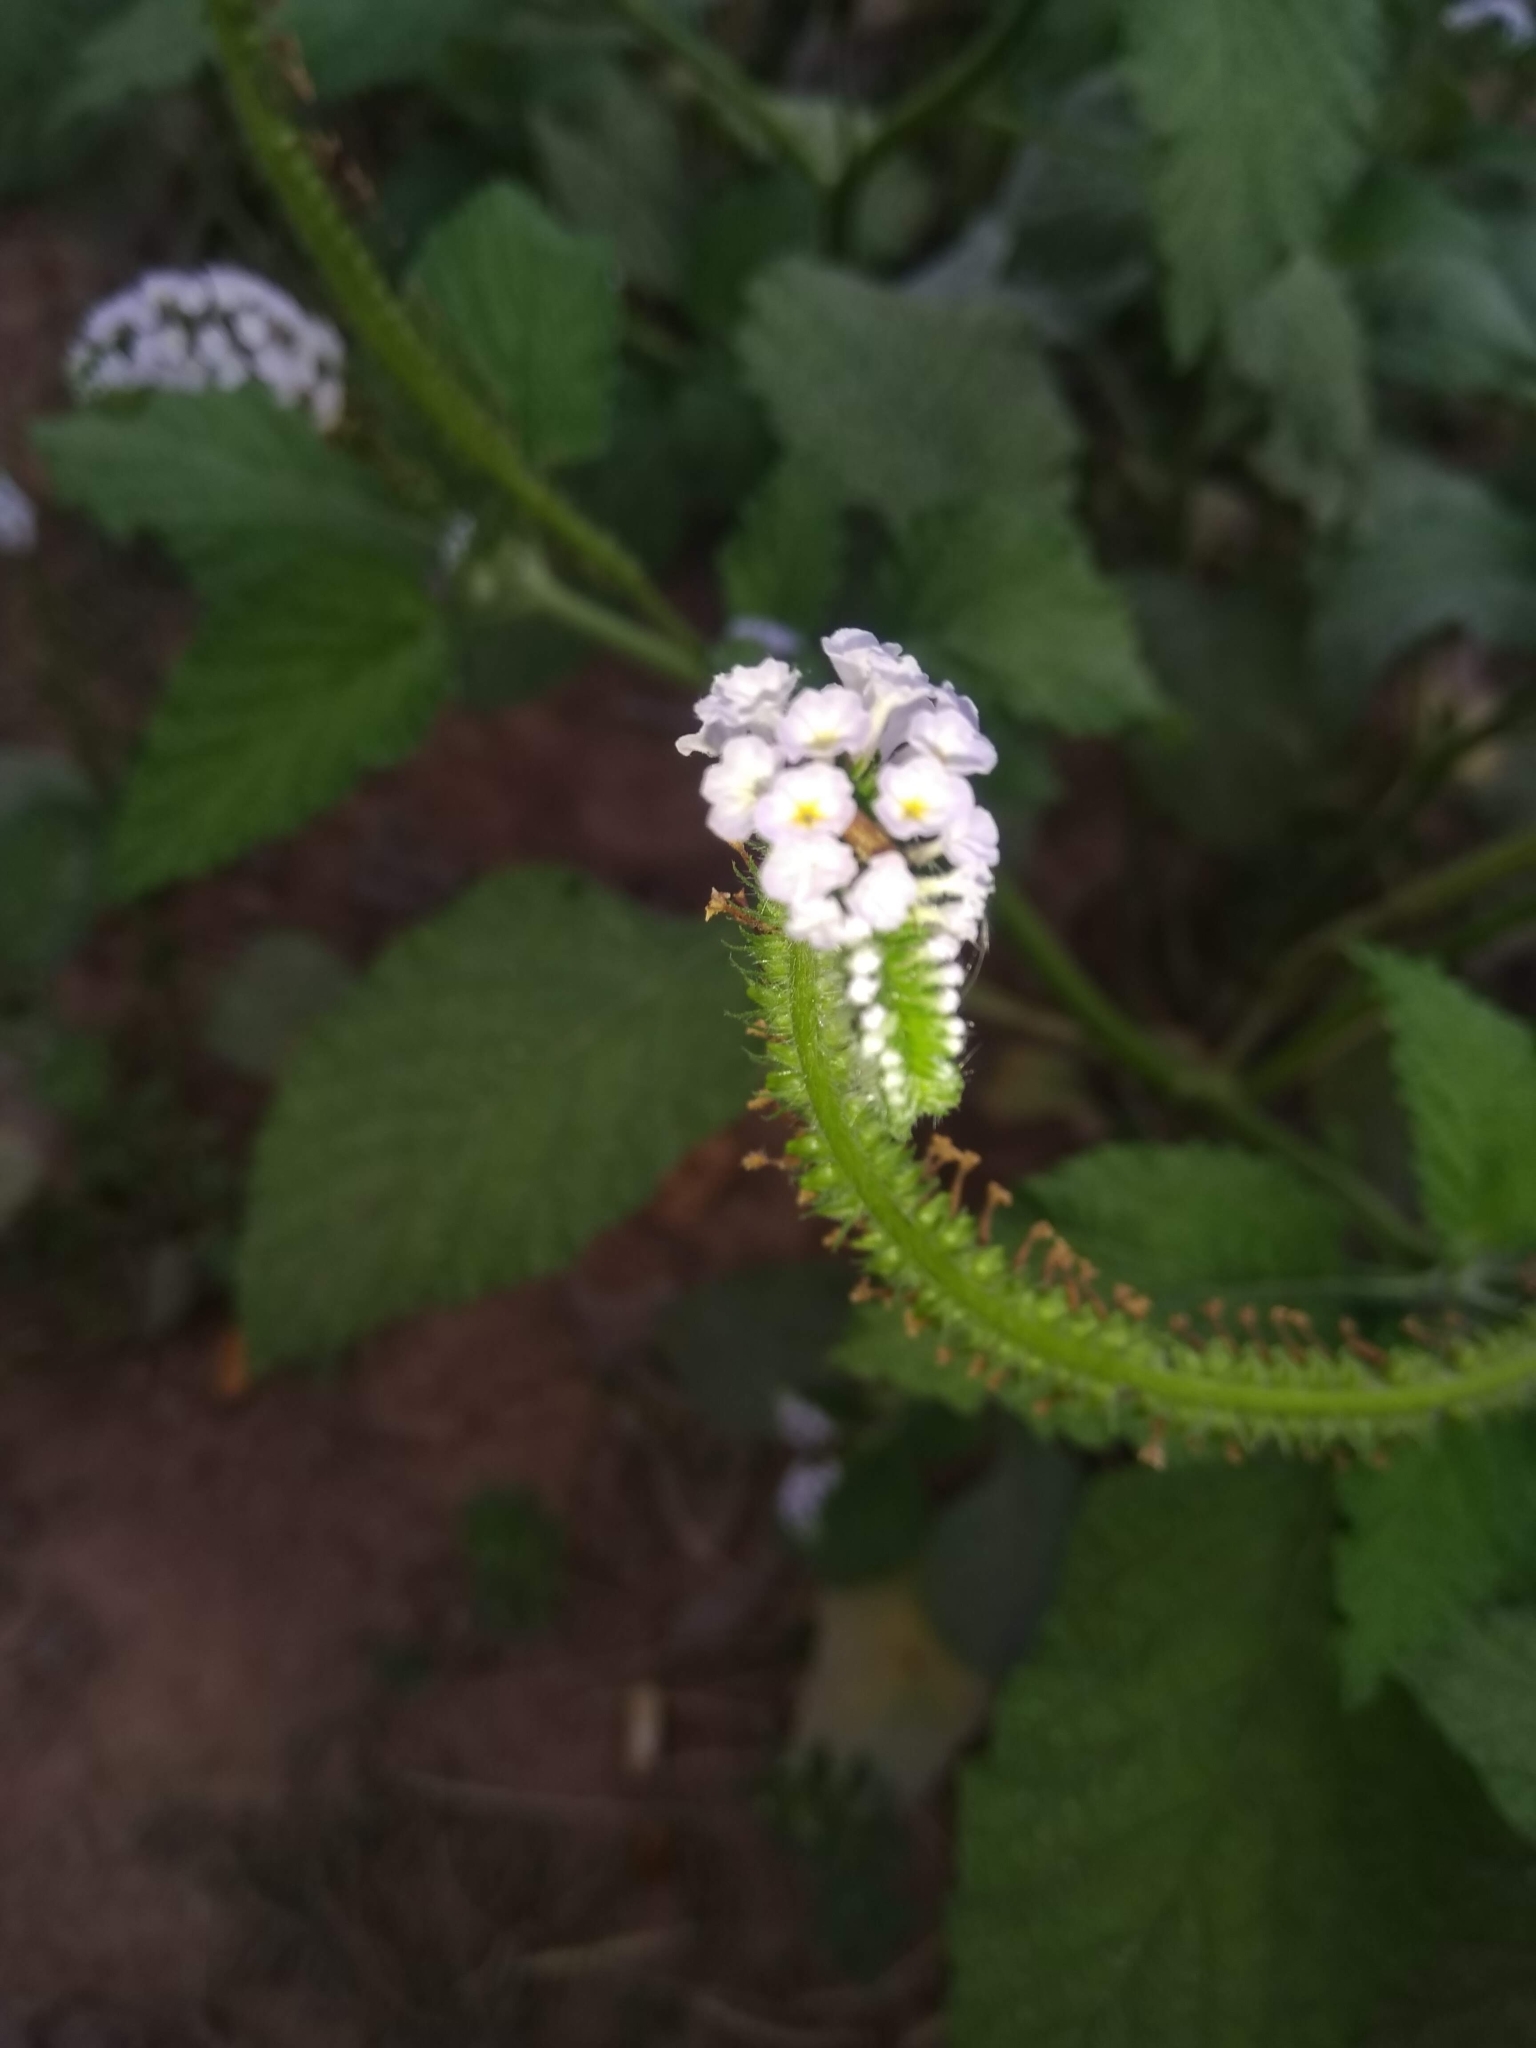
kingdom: Plantae
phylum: Tracheophyta
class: Magnoliopsida
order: Boraginales
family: Heliotropiaceae
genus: Heliotropium
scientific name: Heliotropium indicum
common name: Indian heliotrope
